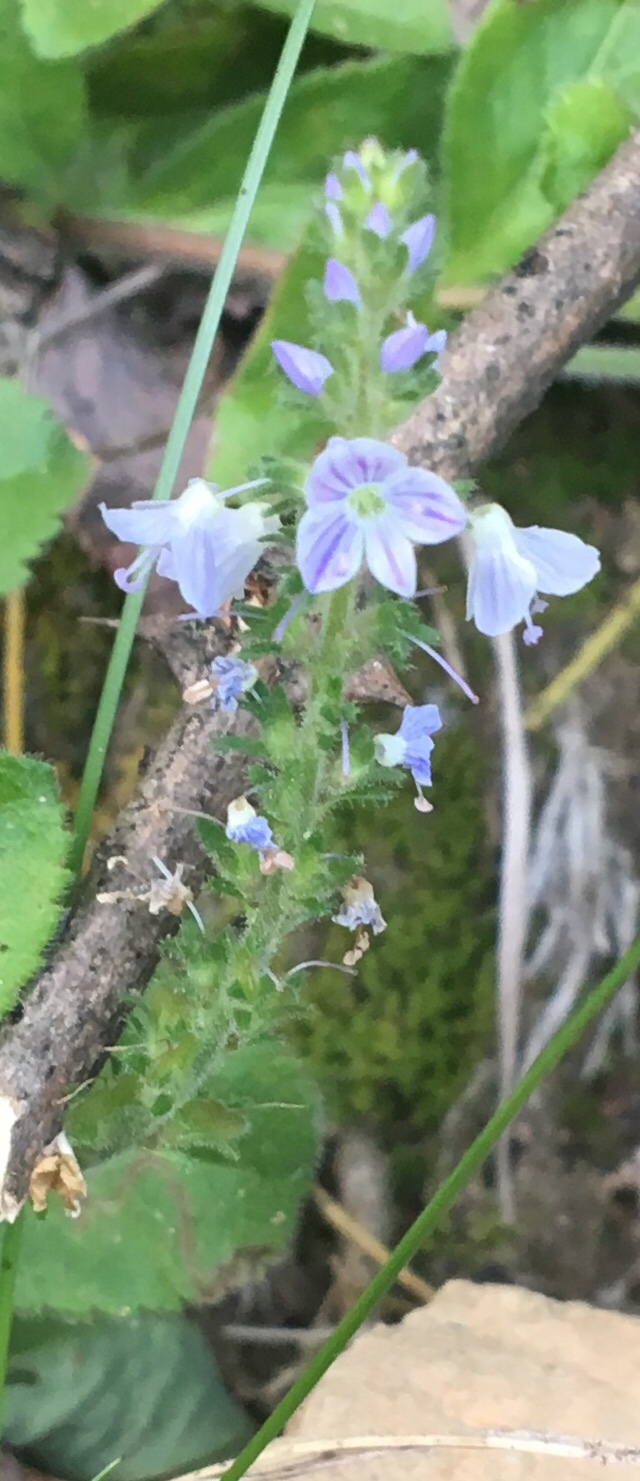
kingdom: Plantae
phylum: Tracheophyta
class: Magnoliopsida
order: Lamiales
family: Plantaginaceae
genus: Veronica
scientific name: Veronica officinalis
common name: Common speedwell
